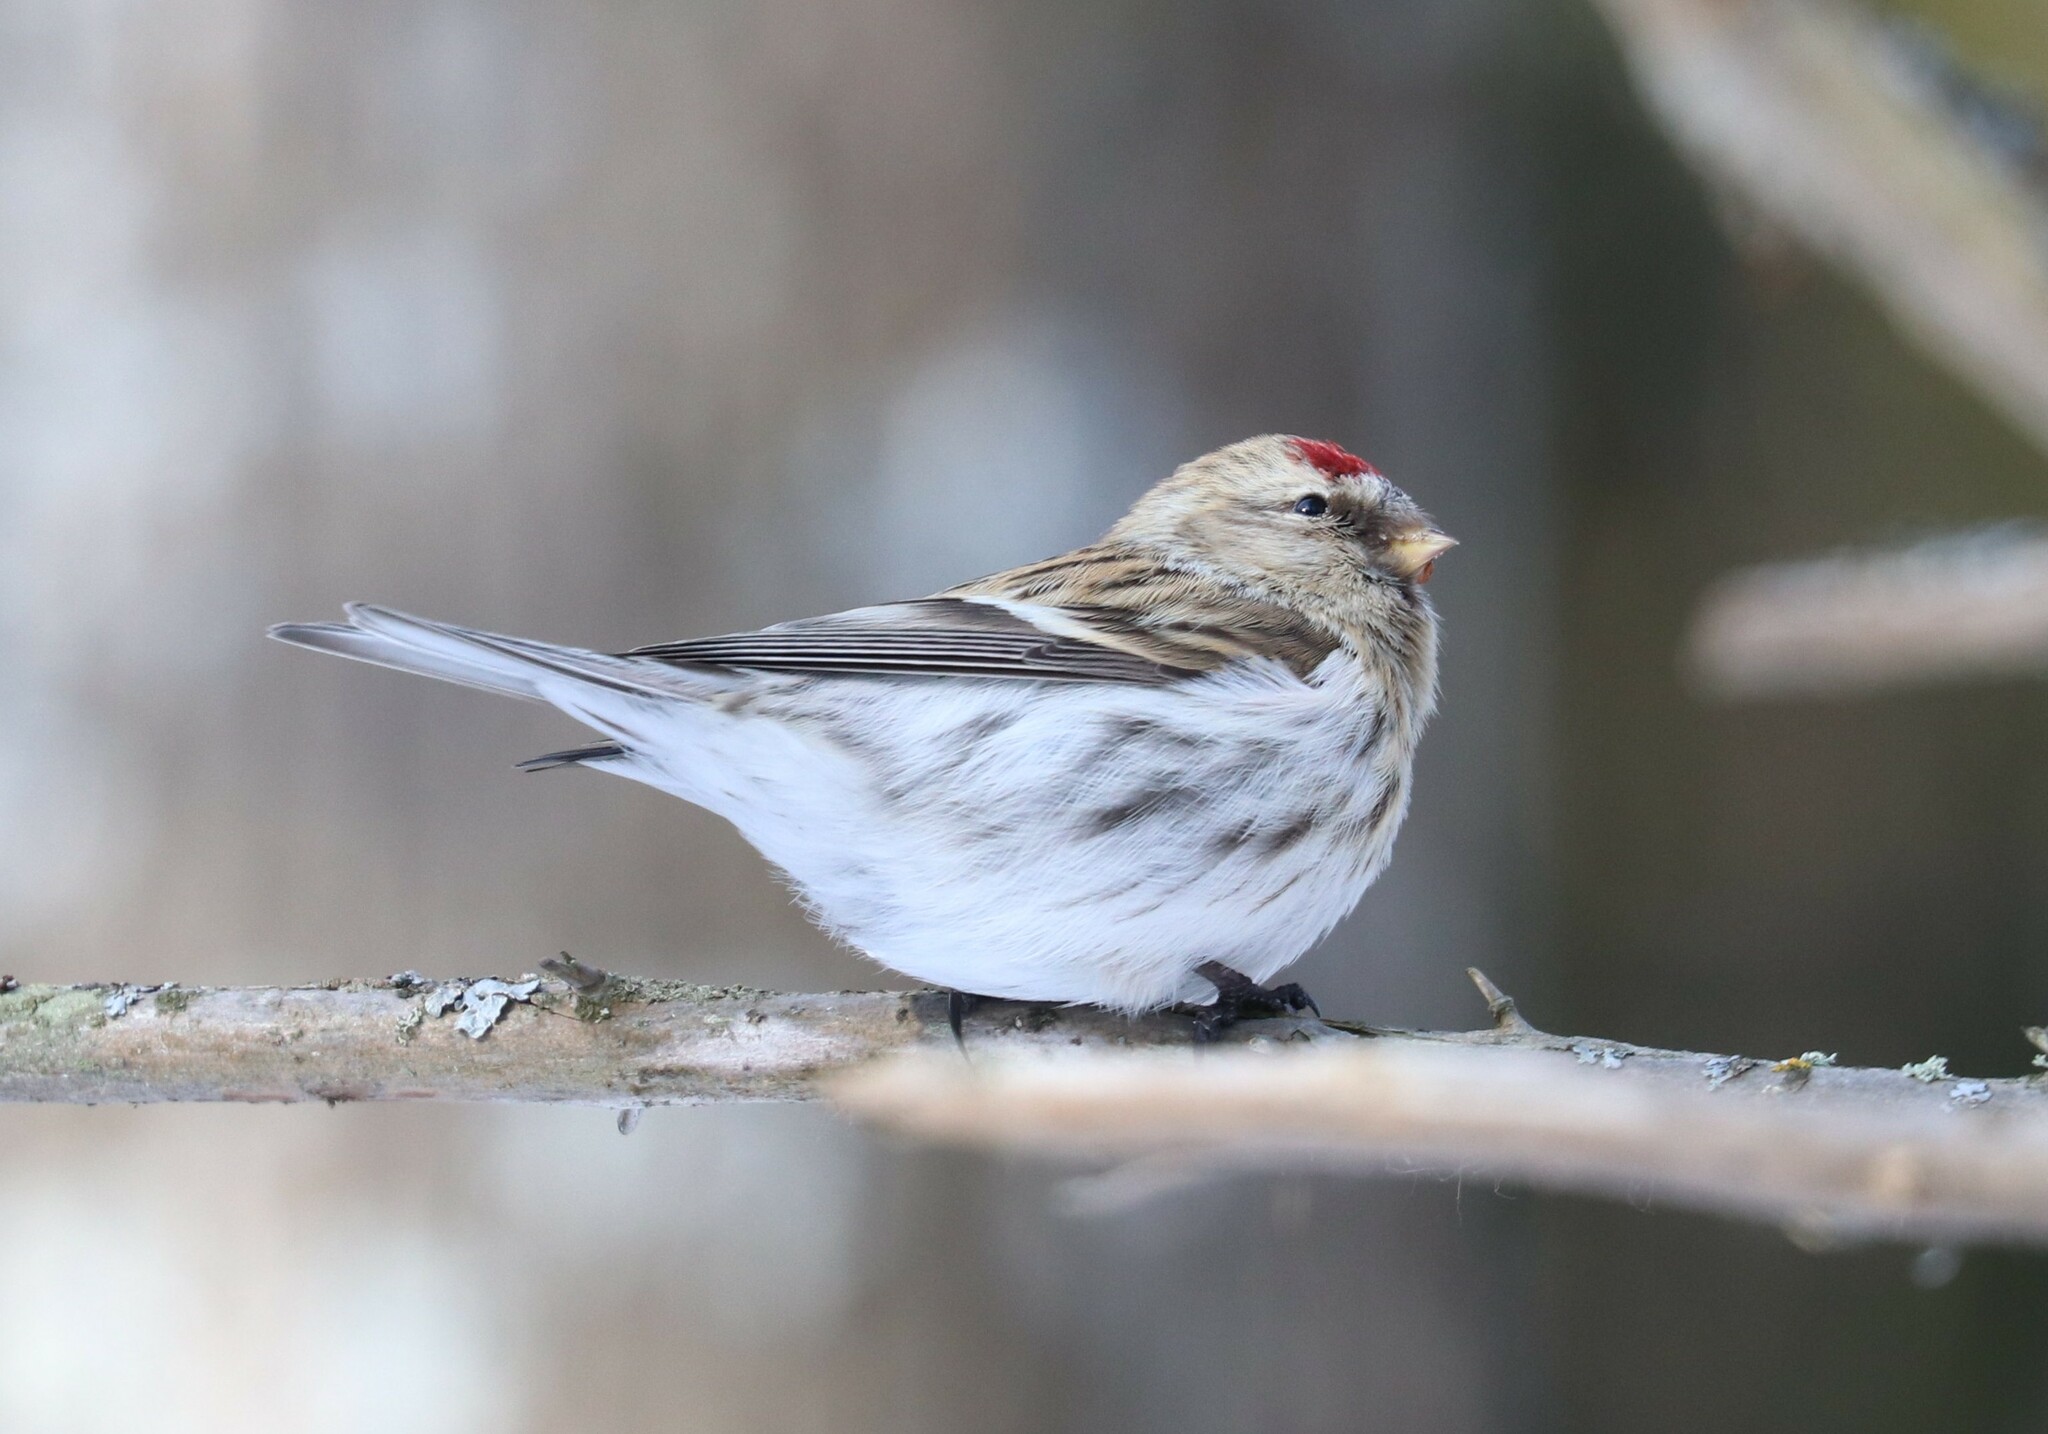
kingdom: Animalia
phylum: Chordata
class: Aves
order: Passeriformes
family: Fringillidae
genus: Acanthis
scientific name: Acanthis hornemanni
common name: Arctic redpoll
